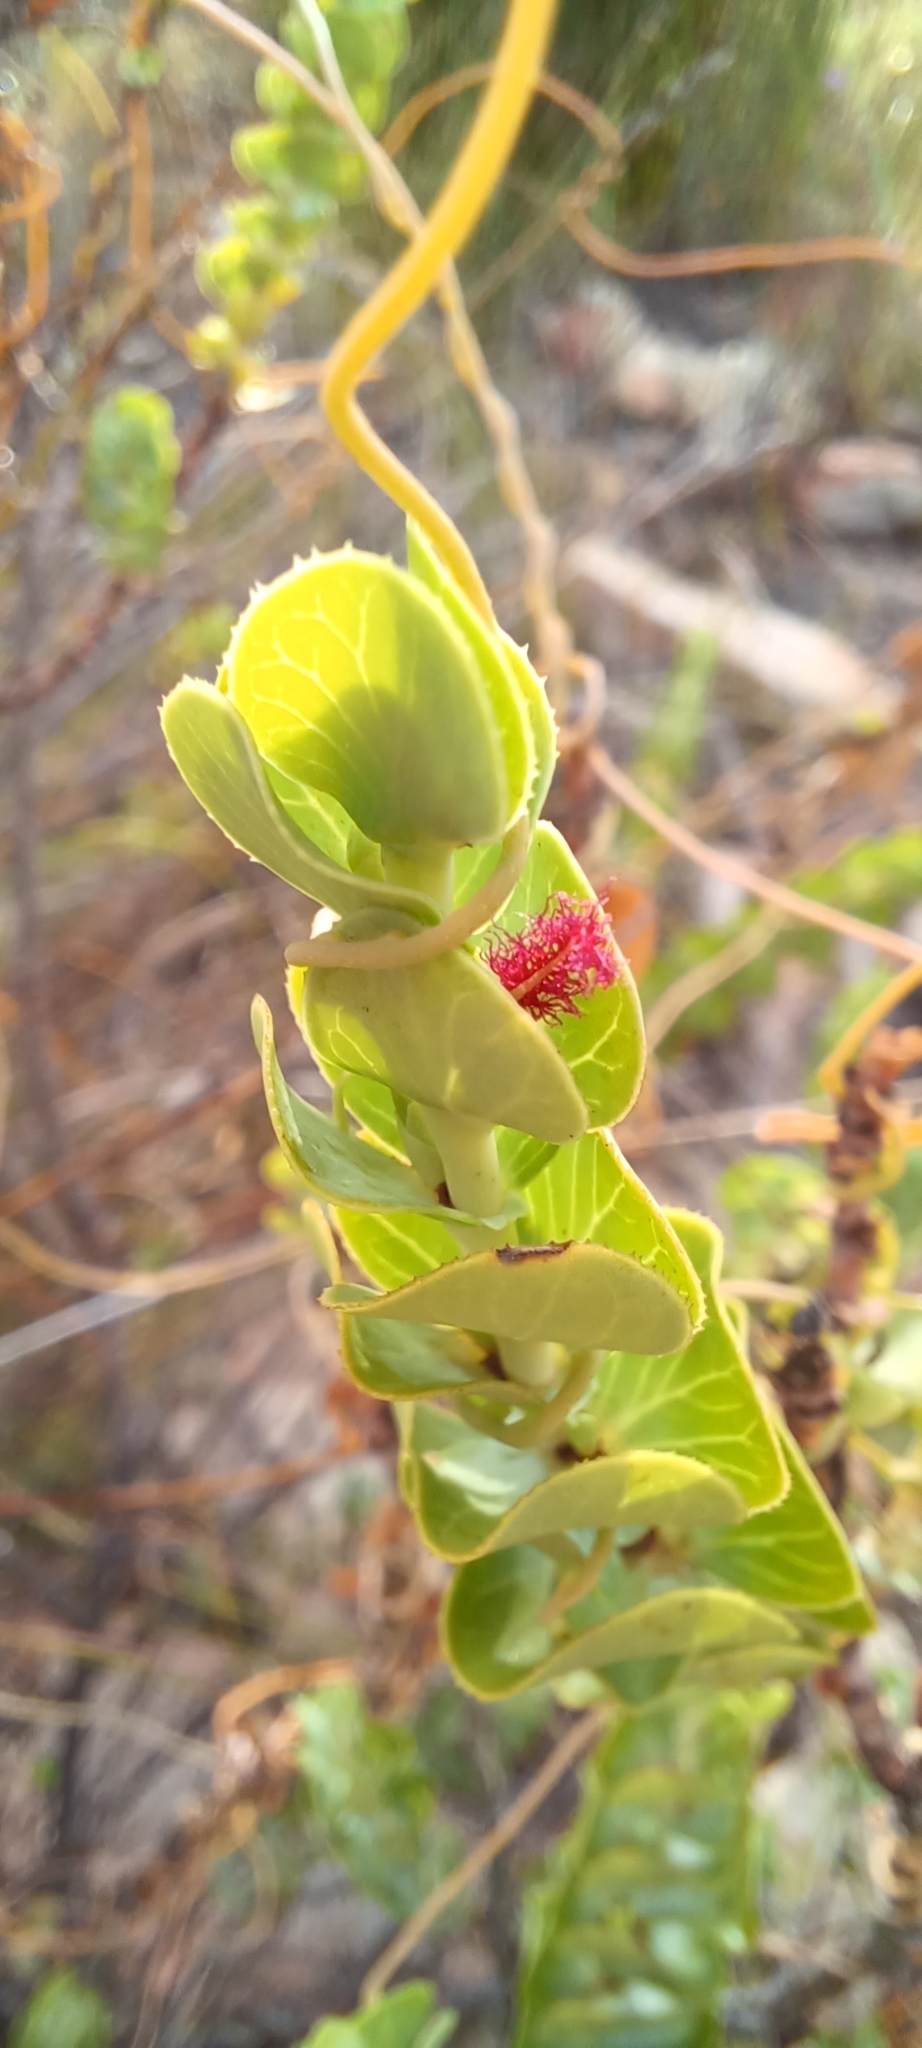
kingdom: Plantae
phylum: Tracheophyta
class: Magnoliopsida
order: Rosales
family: Rosaceae
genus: Cliffortia
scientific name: Cliffortia crenata
